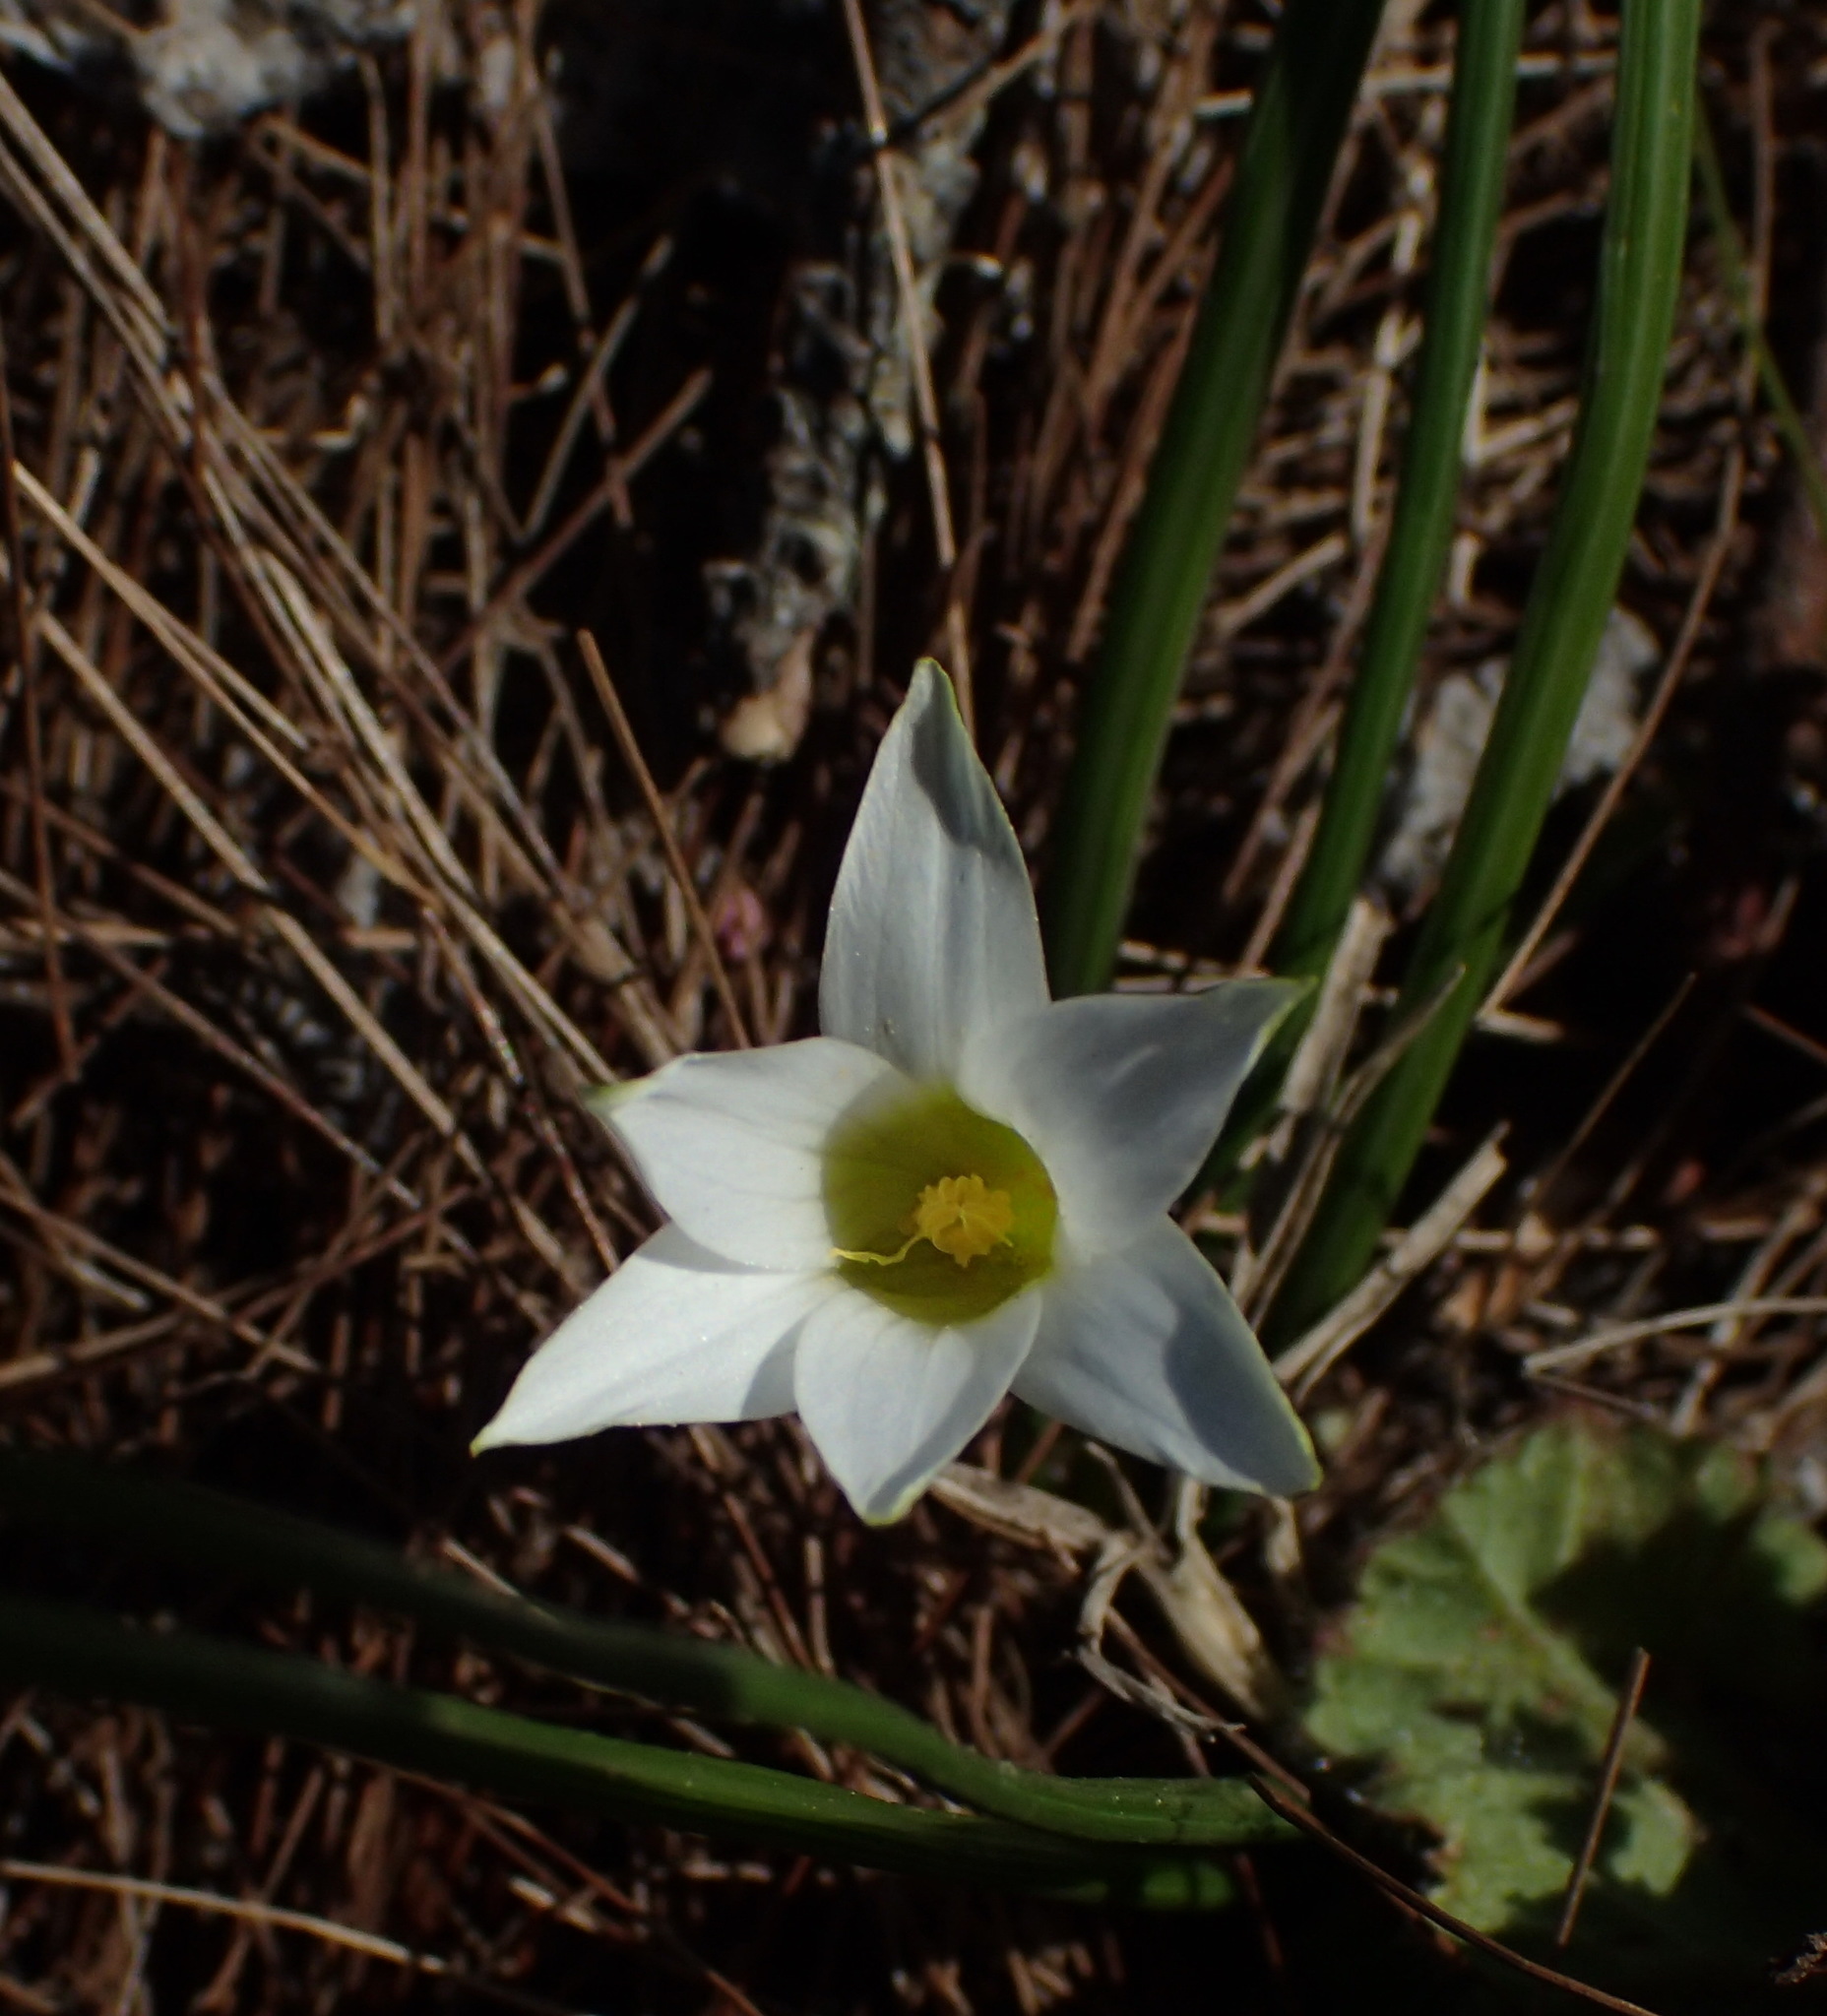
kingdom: Plantae
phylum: Tracheophyta
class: Liliopsida
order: Asparagales
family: Iridaceae
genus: Romulea
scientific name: Romulea flava
